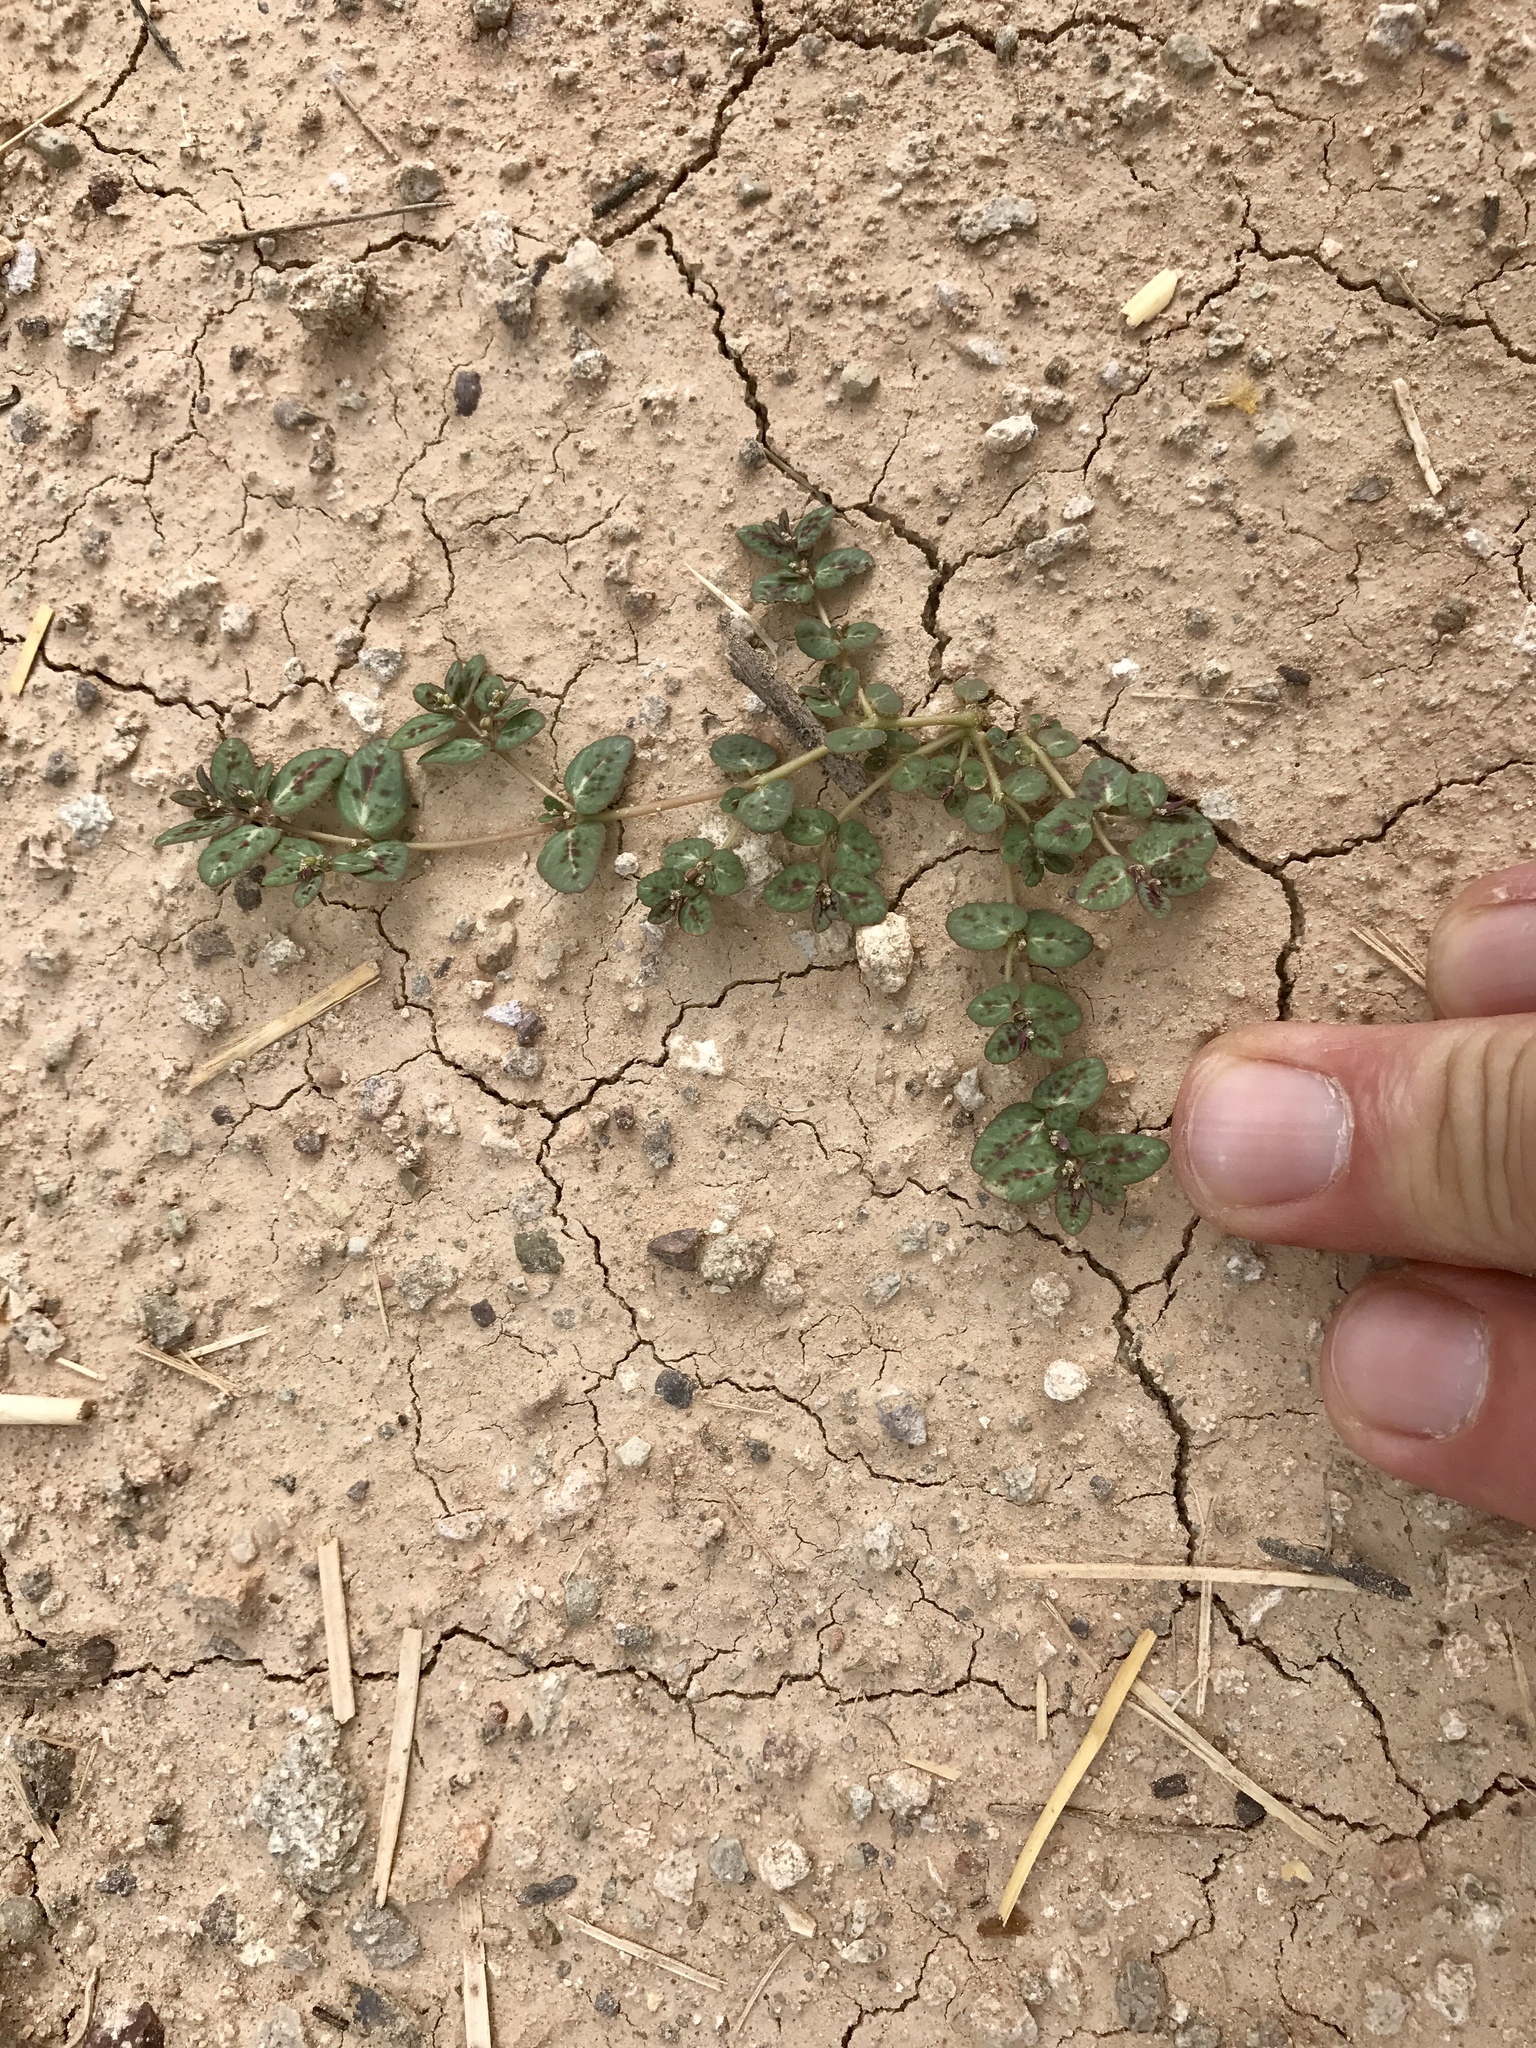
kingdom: Plantae
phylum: Tracheophyta
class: Magnoliopsida
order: Malpighiales
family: Euphorbiaceae
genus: Euphorbia
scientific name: Euphorbia abramsiana
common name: Abram's spurge
